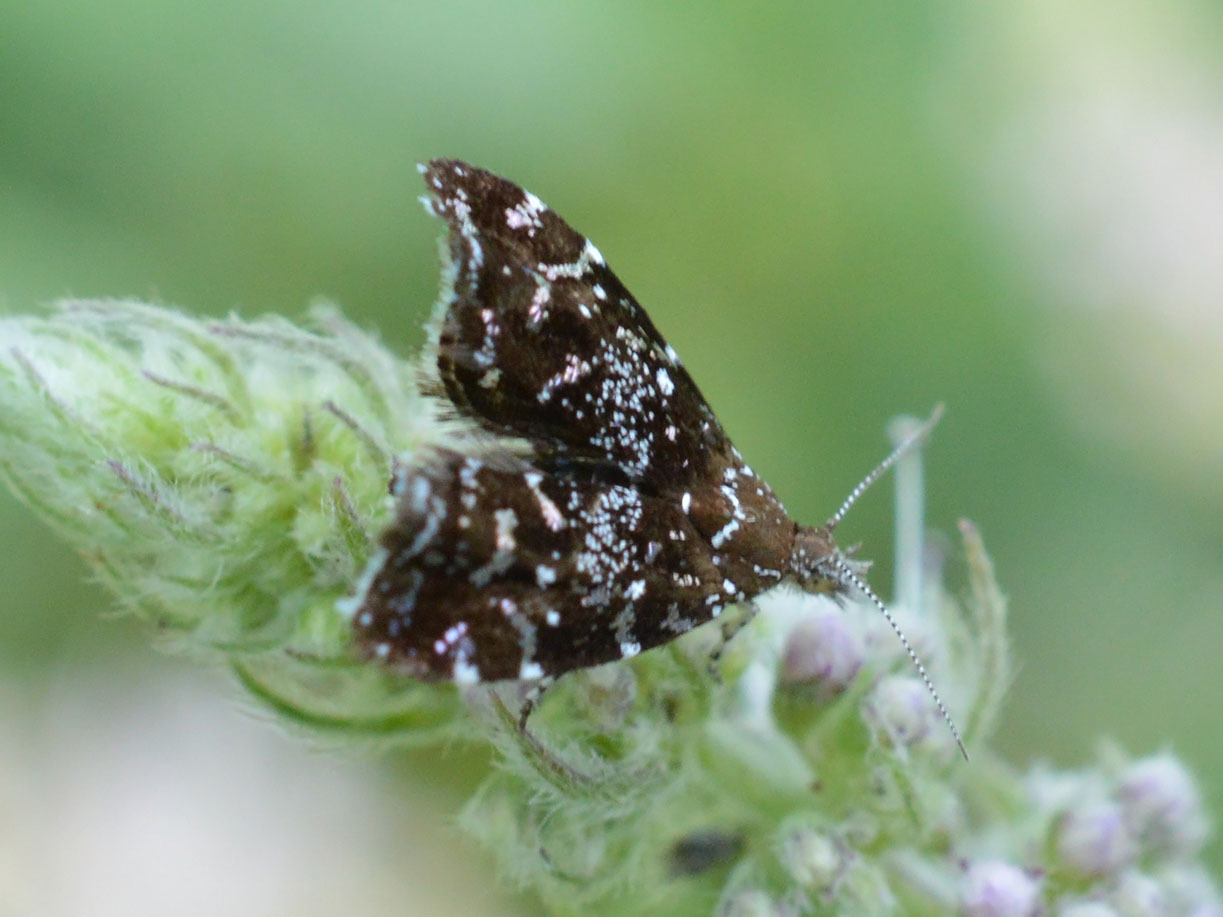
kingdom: Animalia
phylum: Arthropoda
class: Insecta
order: Lepidoptera
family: Choreutidae
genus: Choreutis
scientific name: Choreutis stellaris
